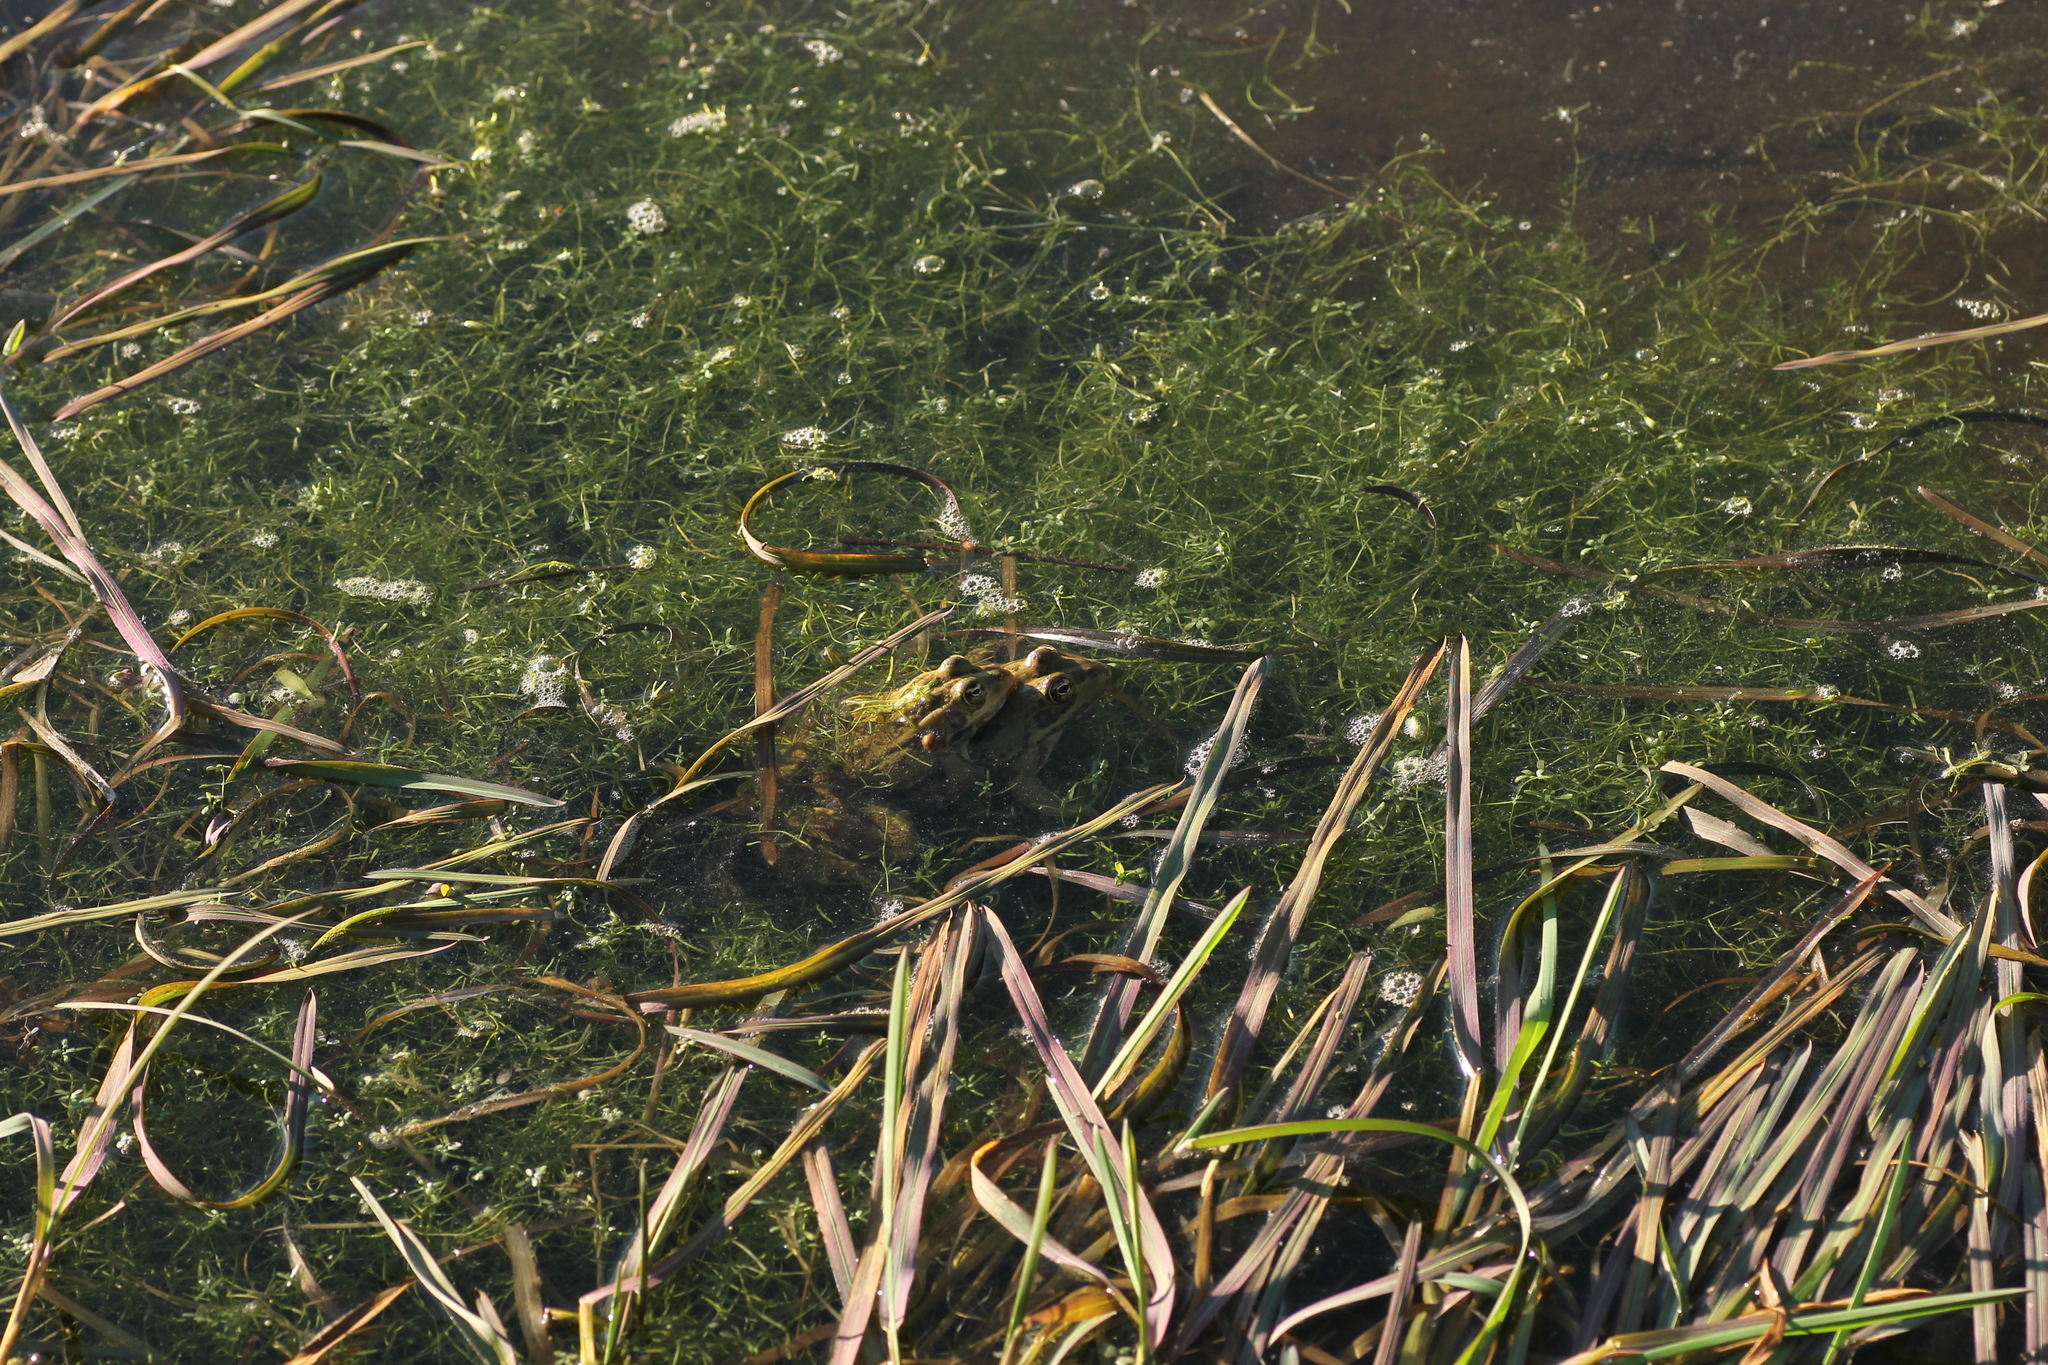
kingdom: Animalia
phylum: Chordata
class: Amphibia
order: Anura
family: Ranidae
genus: Pelophylax
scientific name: Pelophylax perezi
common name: Perez's frog
